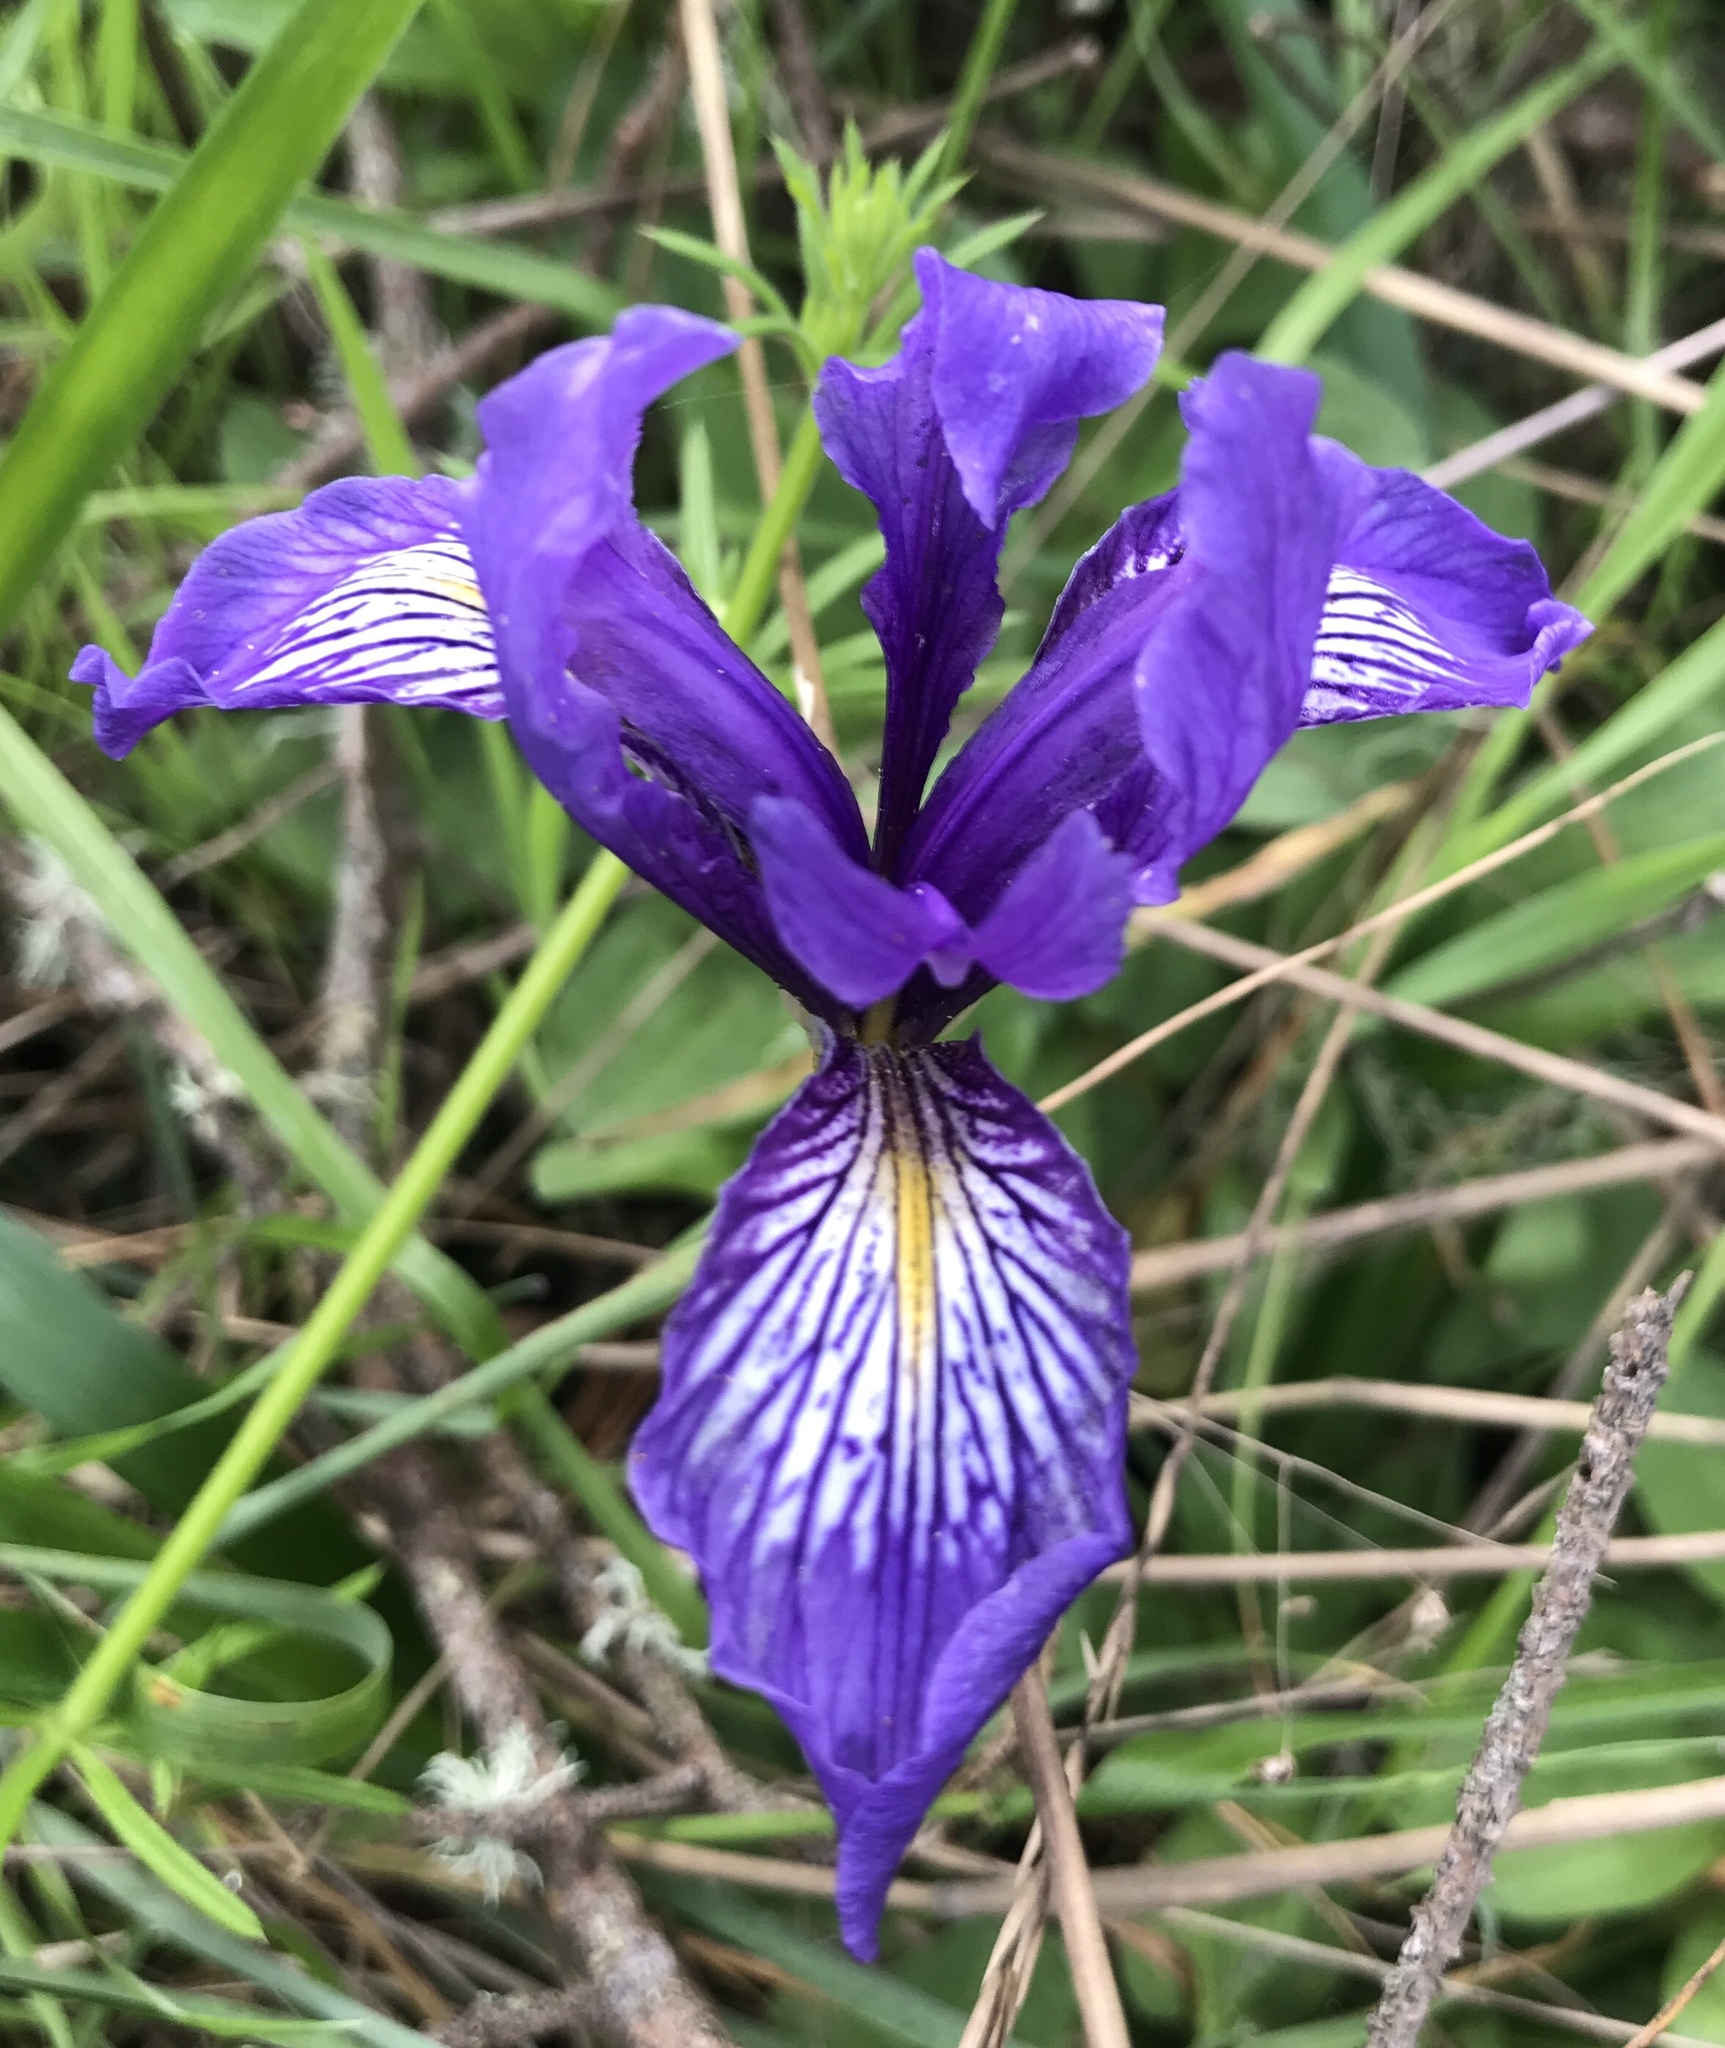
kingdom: Plantae
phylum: Tracheophyta
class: Liliopsida
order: Asparagales
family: Iridaceae
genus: Iris
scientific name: Iris douglasiana
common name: Marin iris
